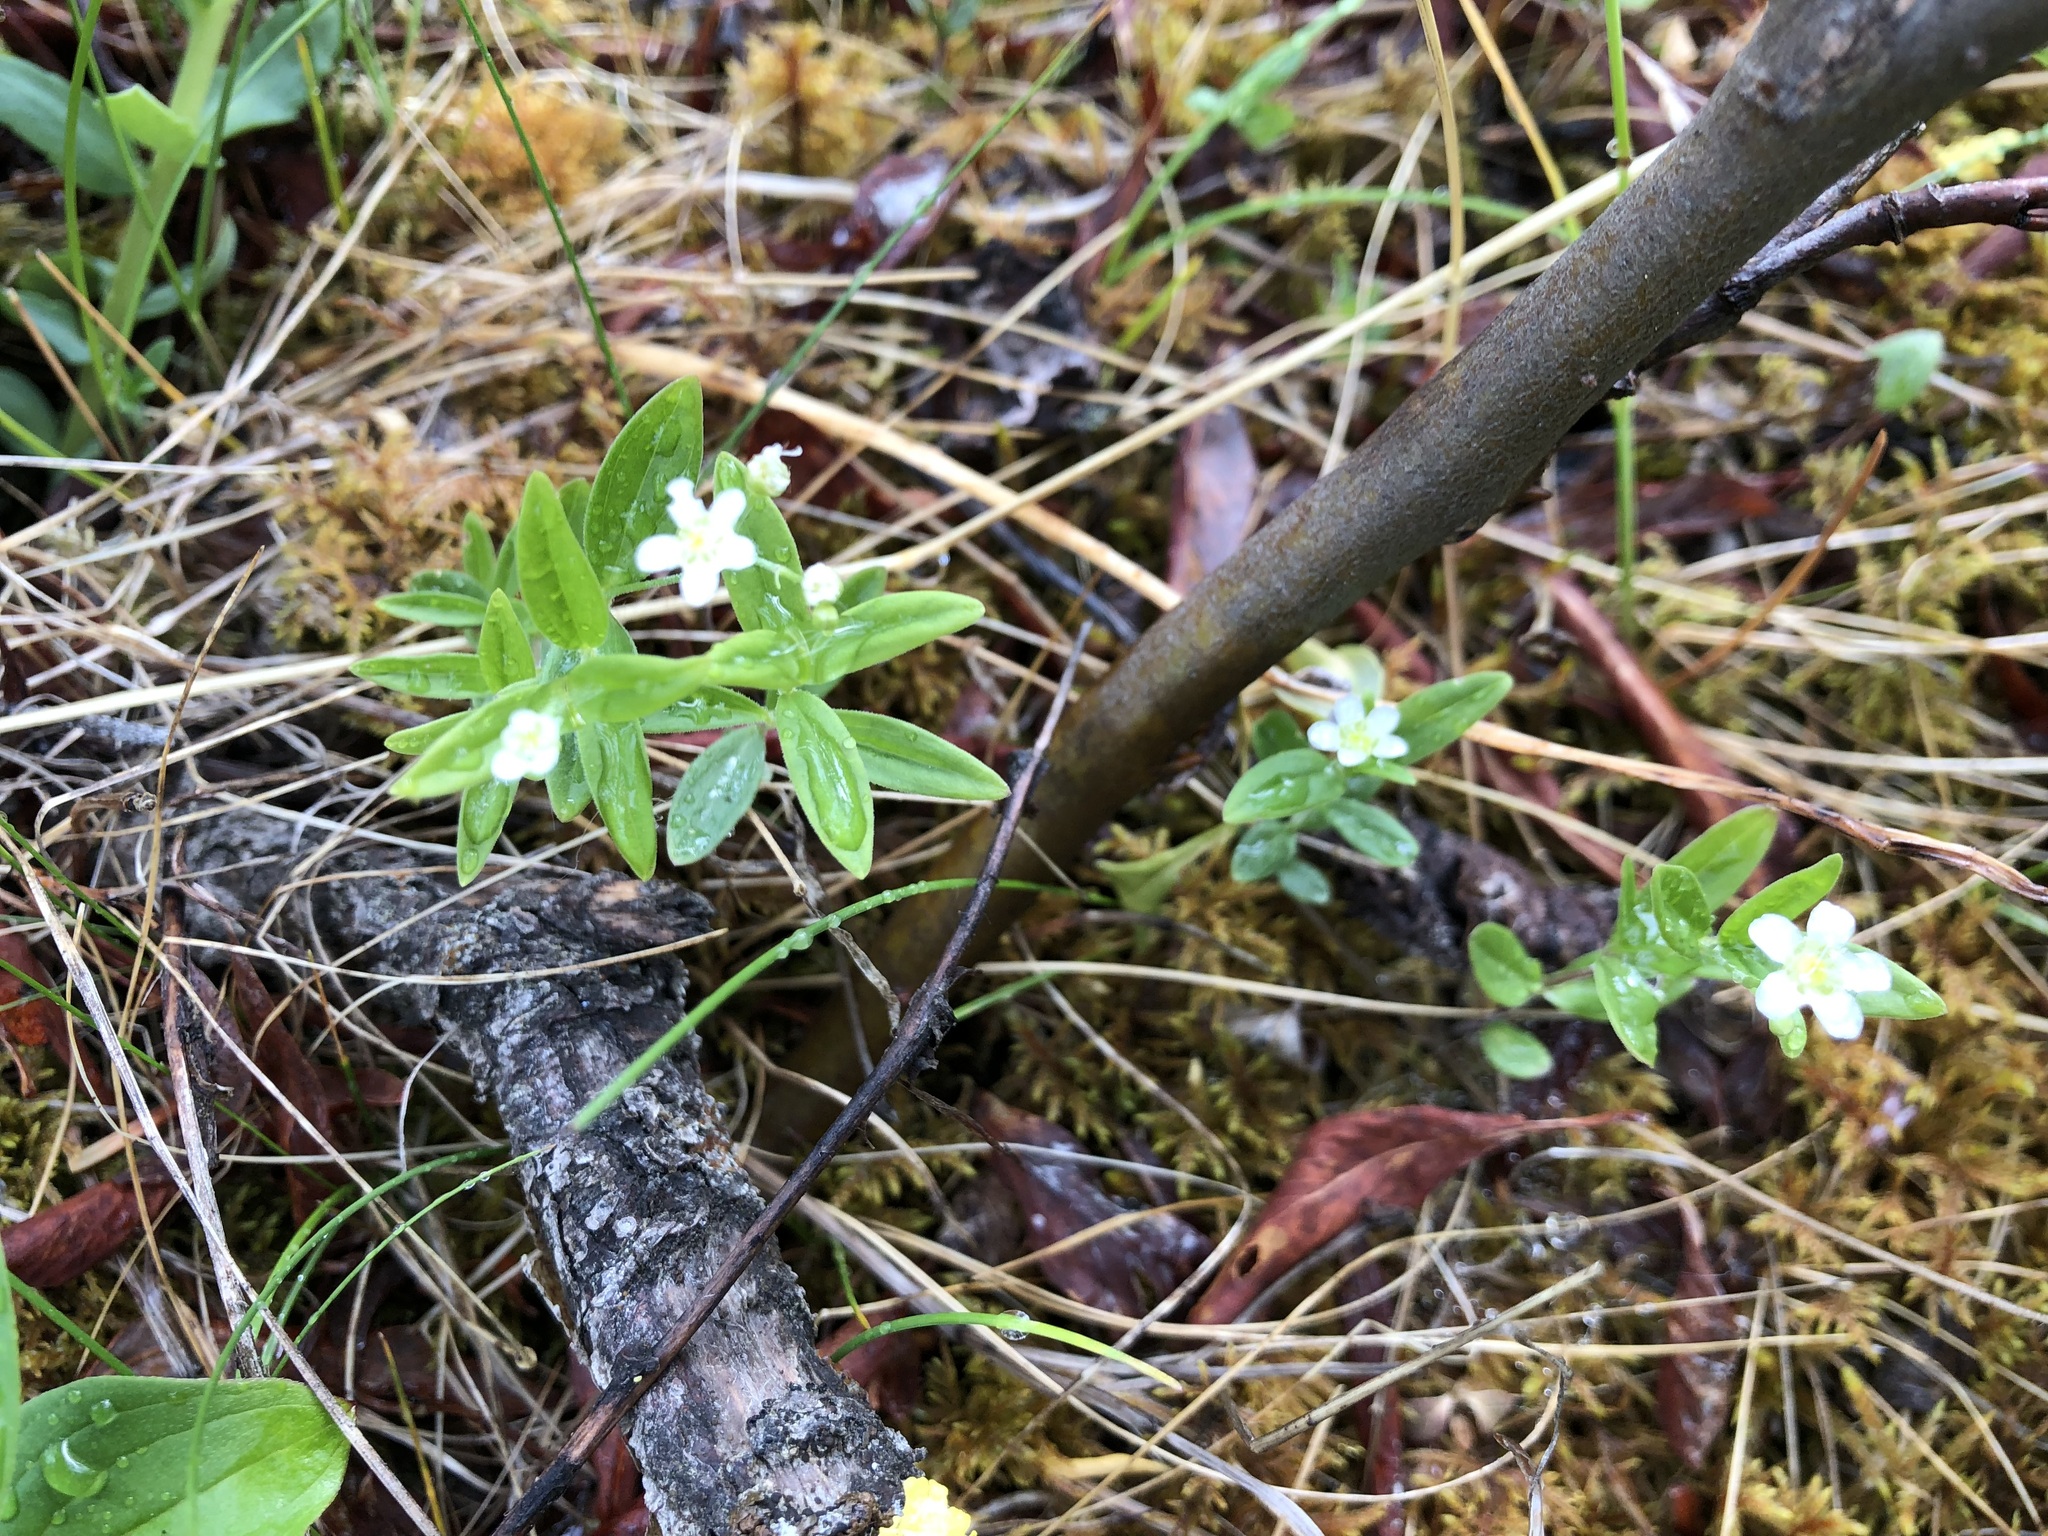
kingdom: Plantae
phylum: Tracheophyta
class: Magnoliopsida
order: Caryophyllales
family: Caryophyllaceae
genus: Moehringia
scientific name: Moehringia lateriflora
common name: Blunt-leaved sandwort
